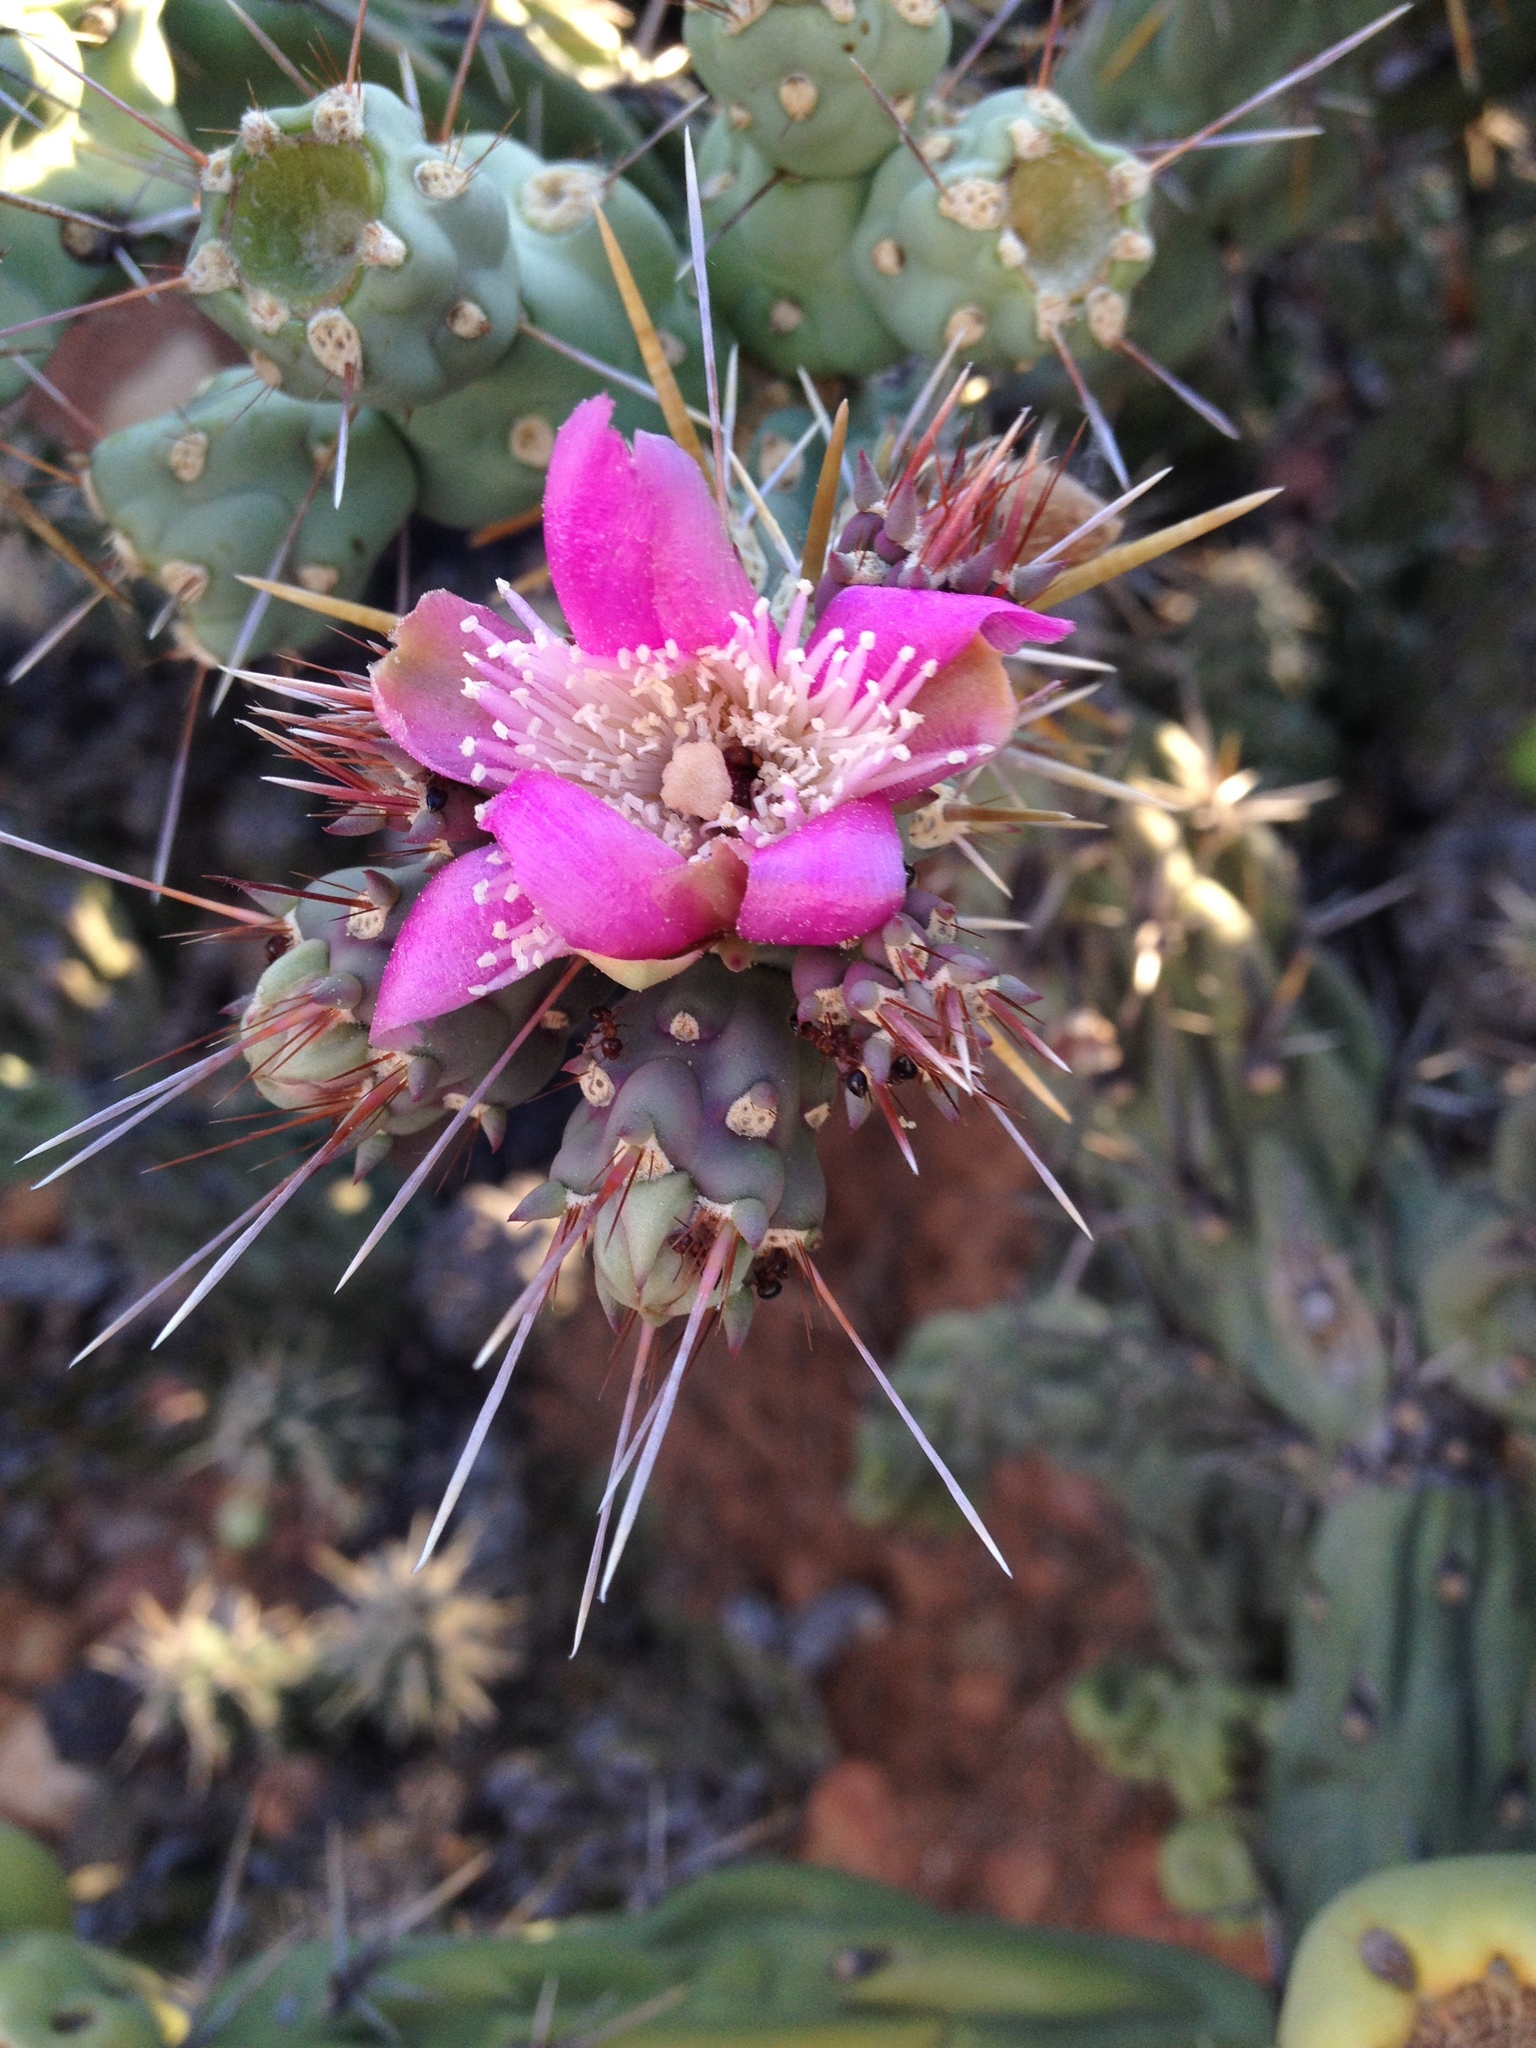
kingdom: Plantae
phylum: Tracheophyta
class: Magnoliopsida
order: Caryophyllales
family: Cactaceae
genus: Cylindropuntia
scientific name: Cylindropuntia cholla
